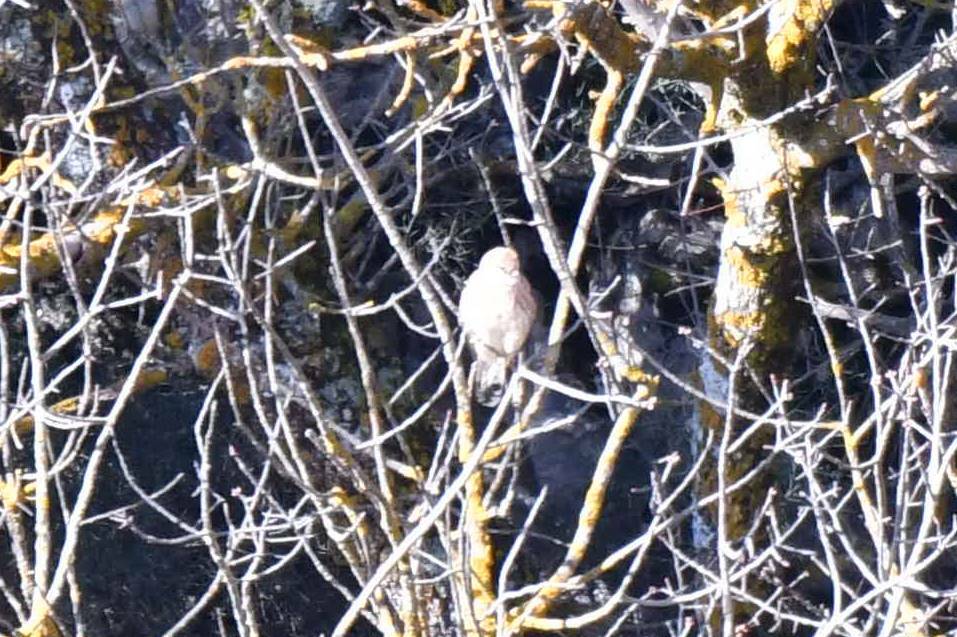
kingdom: Animalia
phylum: Chordata
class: Aves
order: Falconiformes
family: Falconidae
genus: Falco
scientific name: Falco tinnunculus
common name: Common kestrel
